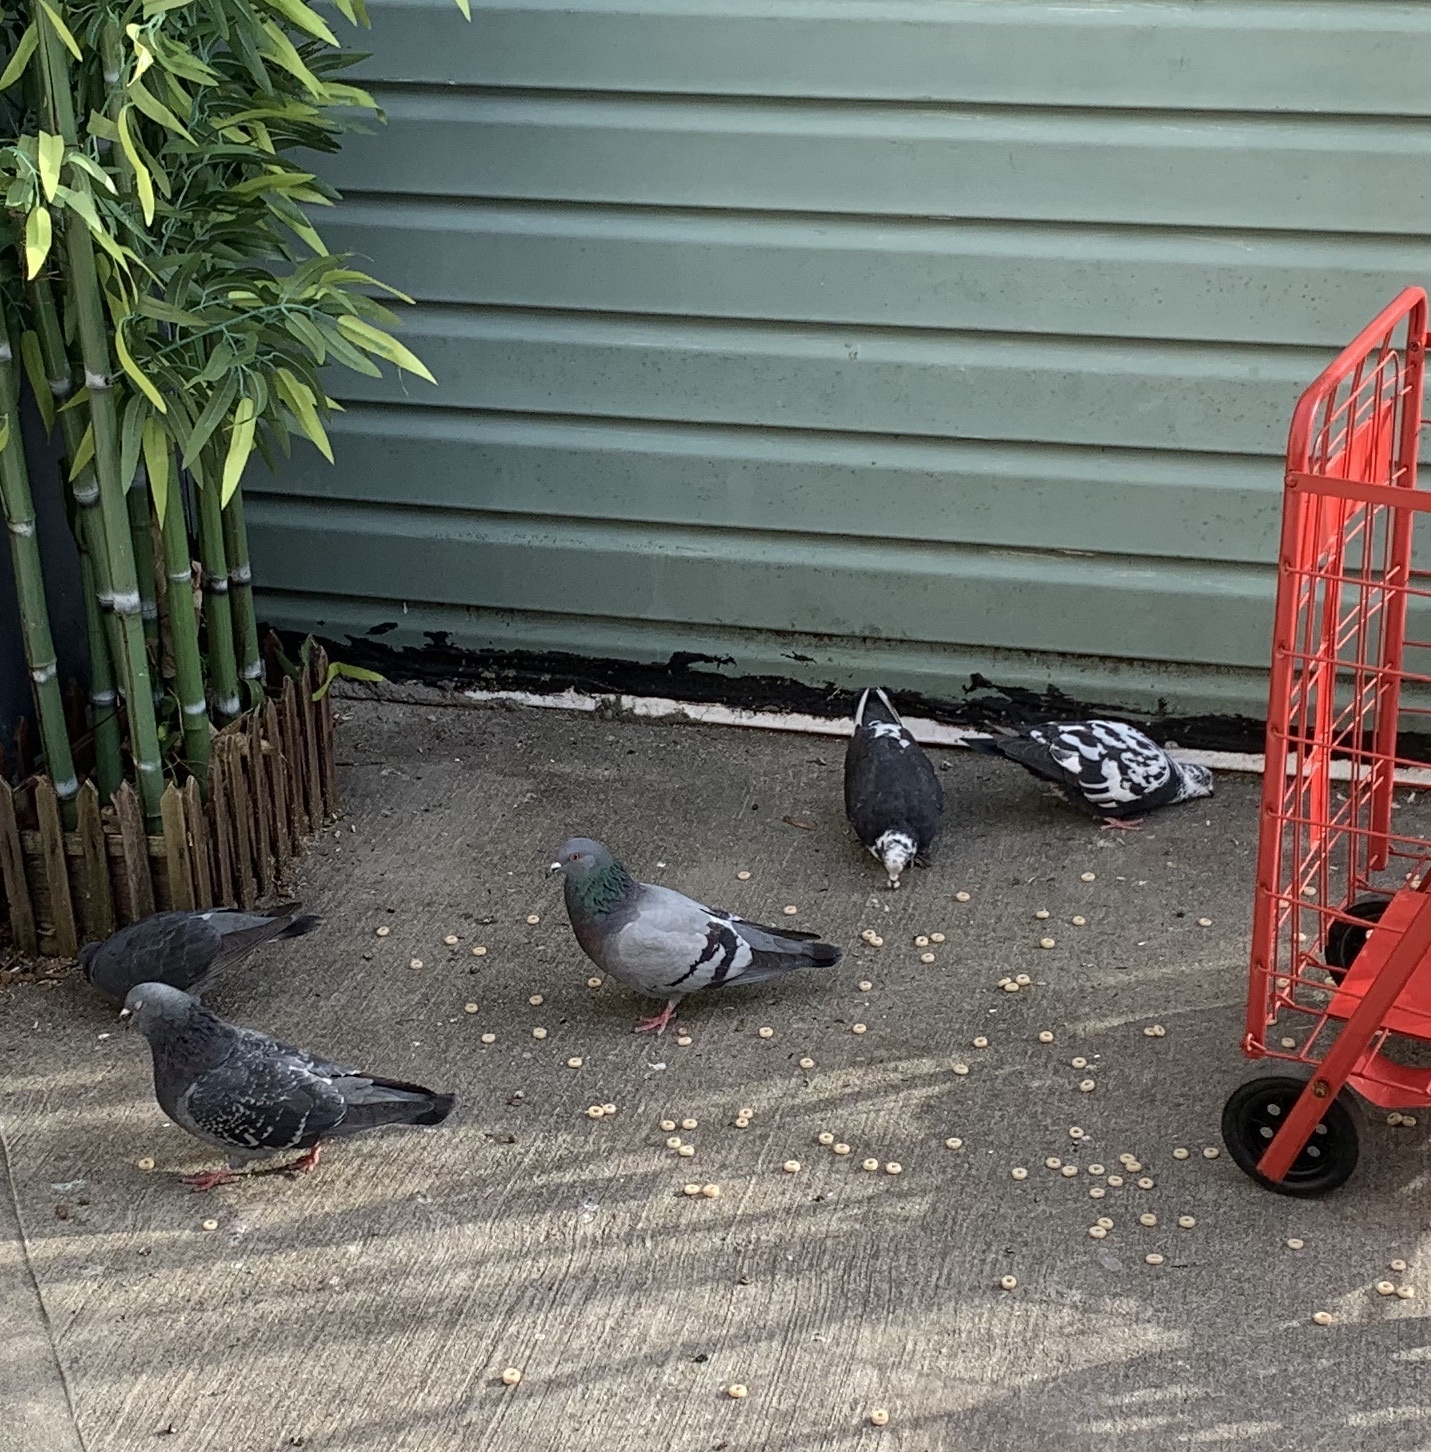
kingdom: Animalia
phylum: Chordata
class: Aves
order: Columbiformes
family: Columbidae
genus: Columba
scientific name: Columba livia
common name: Rock pigeon
